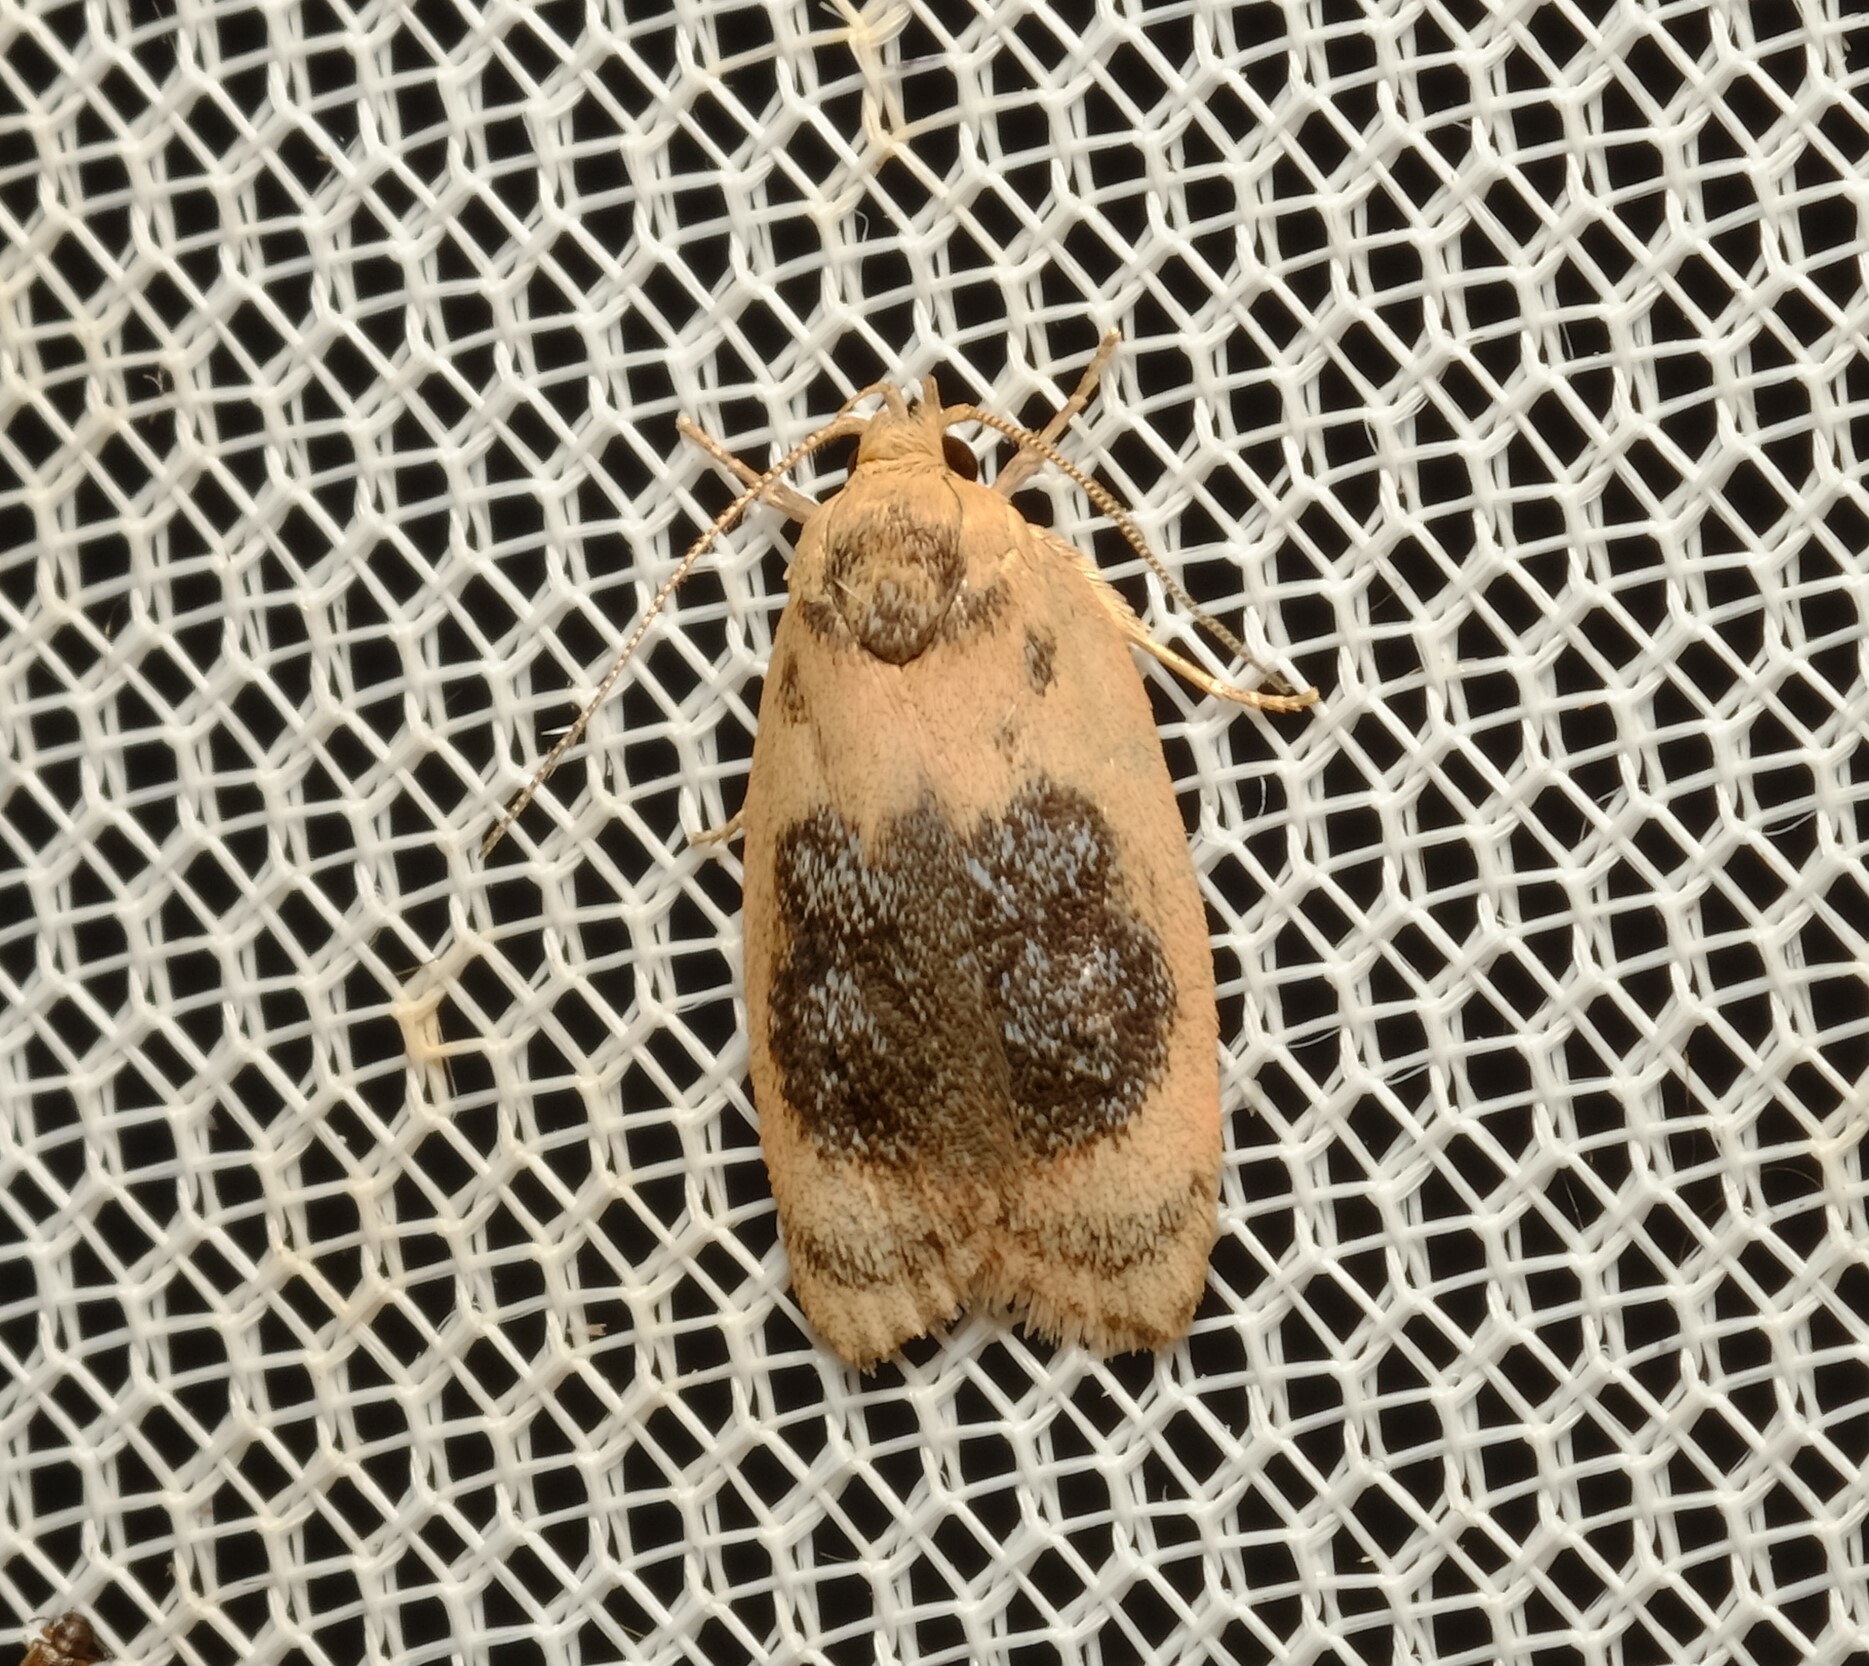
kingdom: Animalia
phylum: Arthropoda
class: Insecta
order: Lepidoptera
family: Oecophoridae
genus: Garrha
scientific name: Garrha ocellifera
